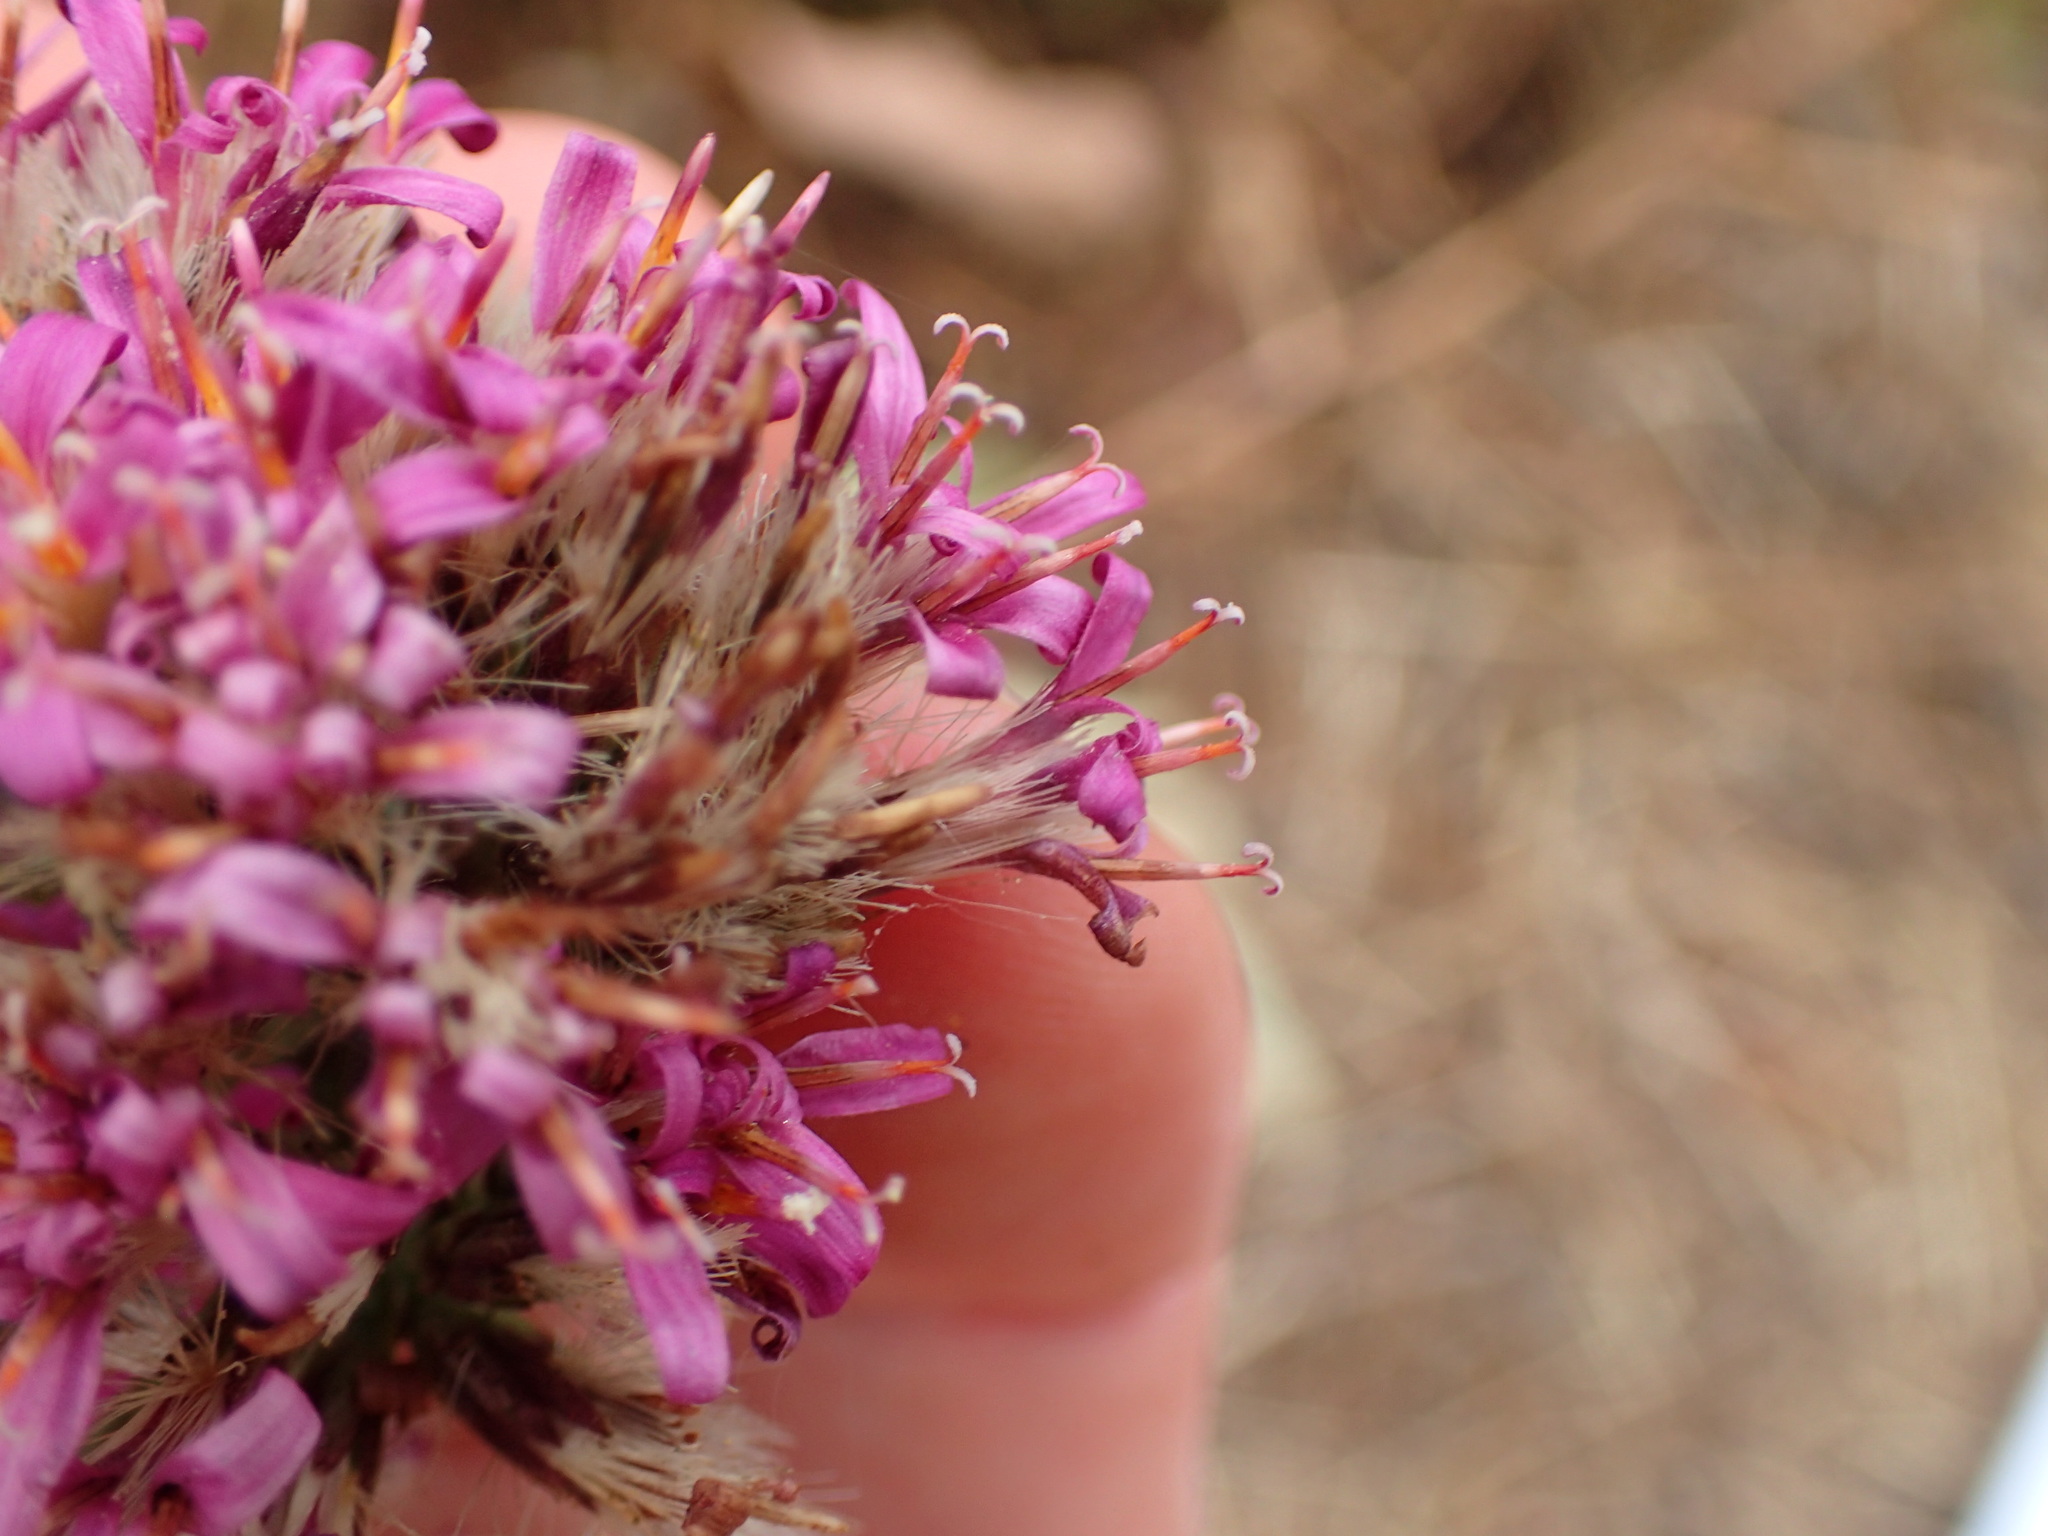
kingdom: Plantae
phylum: Tracheophyta
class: Magnoliopsida
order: Asterales
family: Asteraceae
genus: Acourtia
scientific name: Acourtia microcephala
